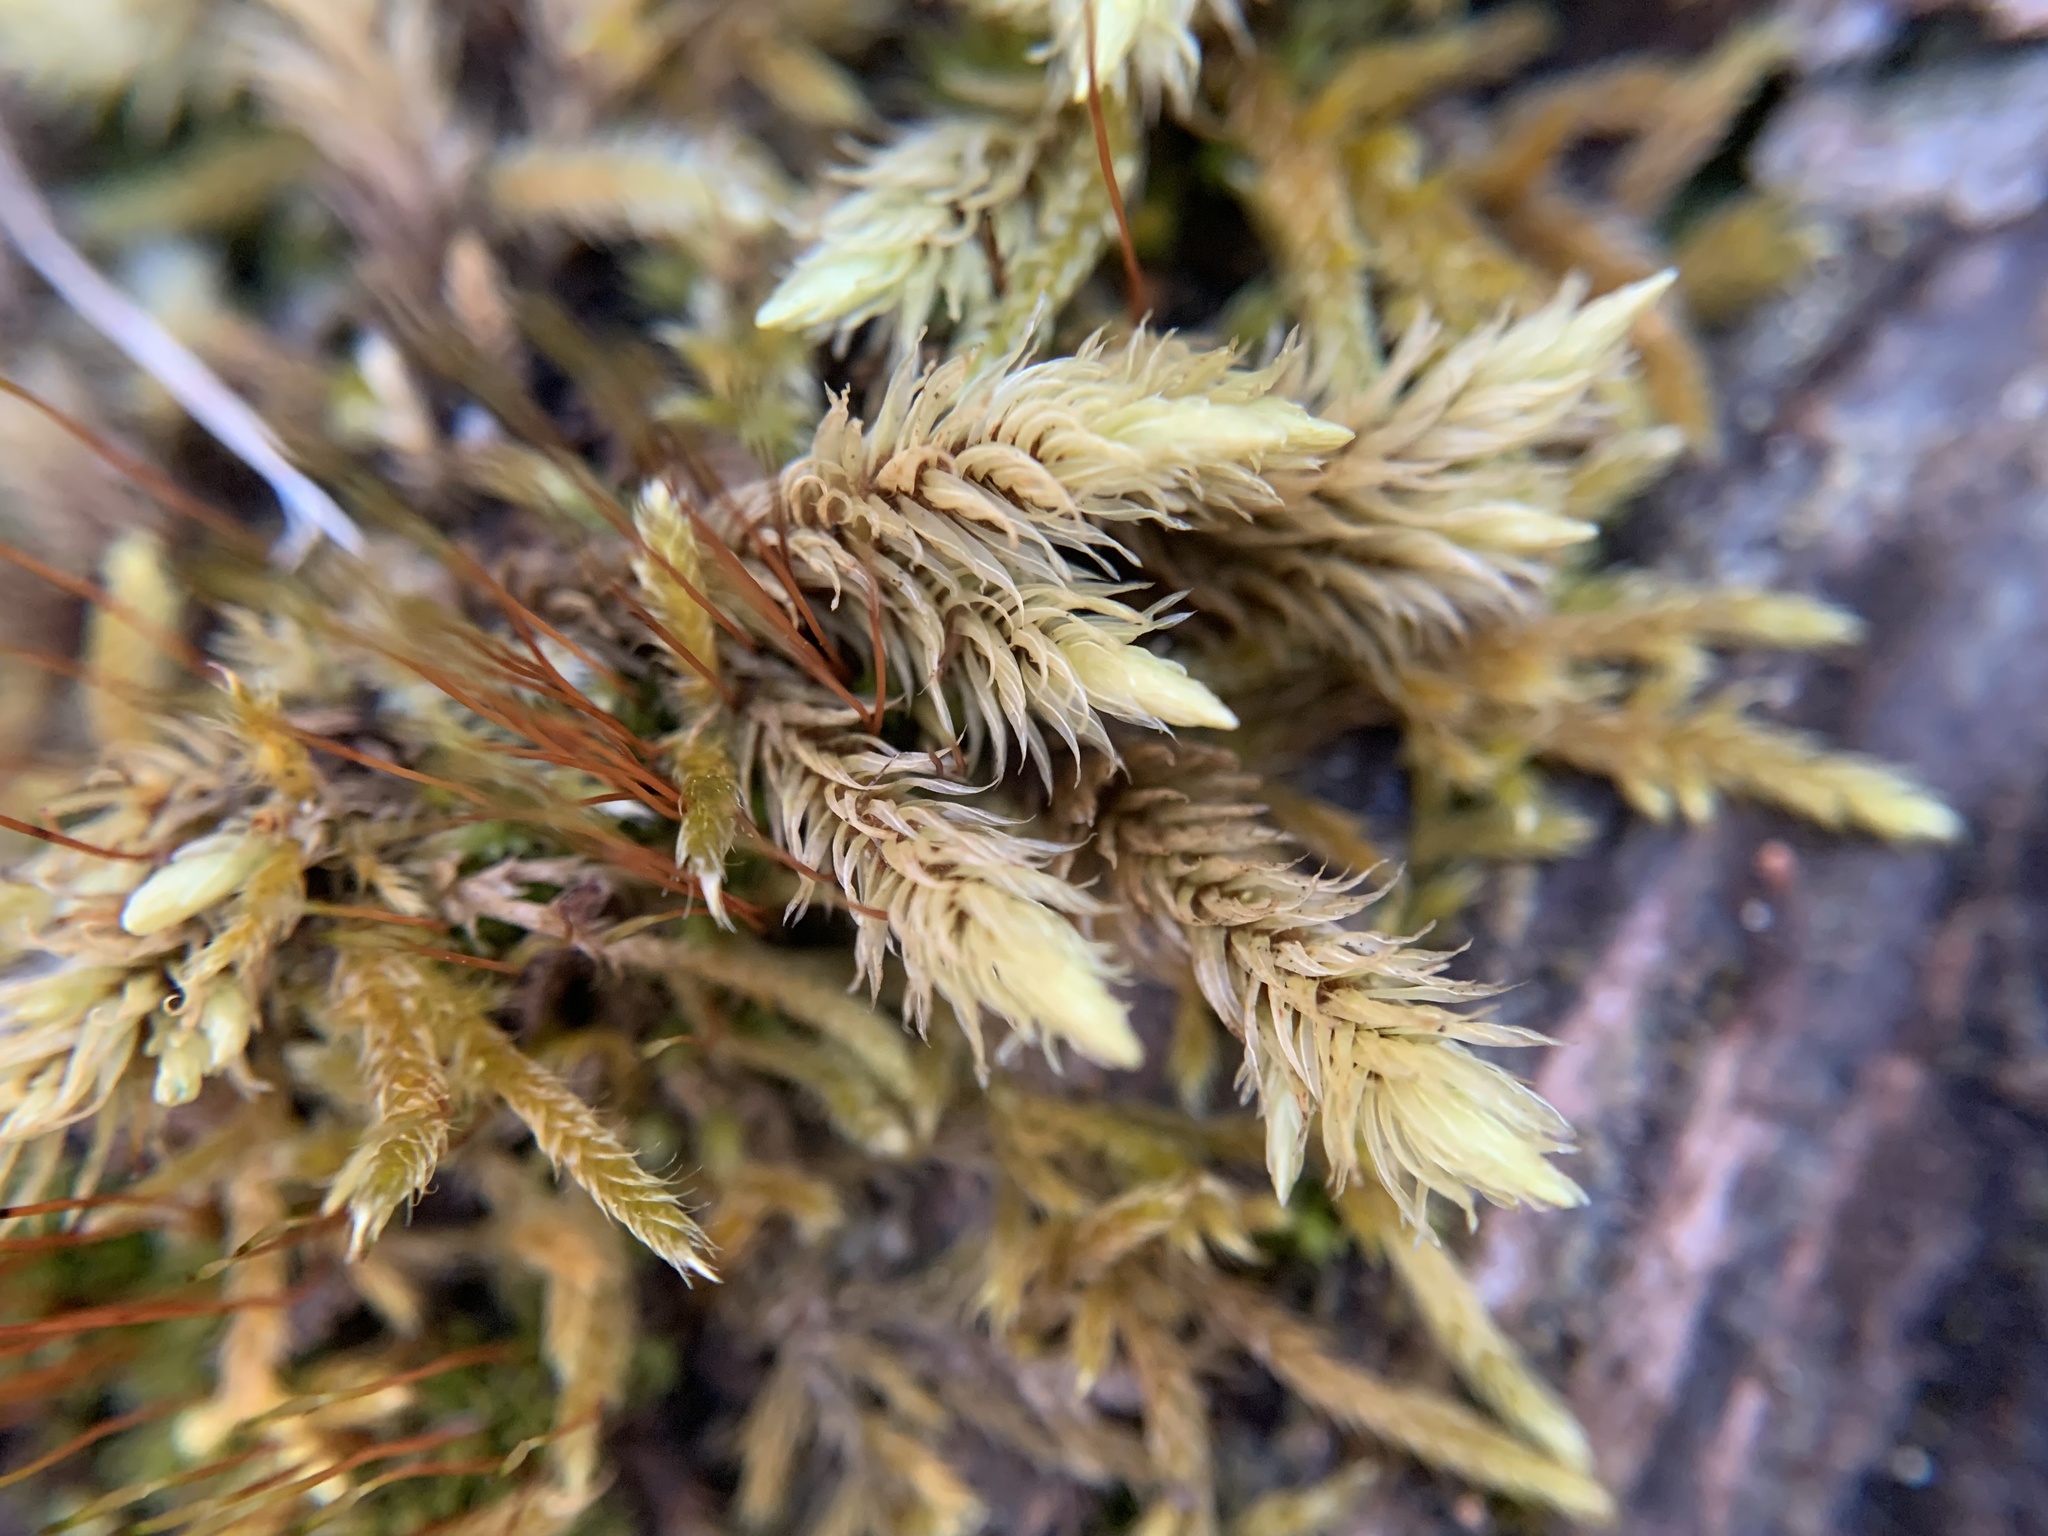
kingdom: Plantae
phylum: Bryophyta
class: Bryopsida
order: Aulacomniales
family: Aulacomniaceae
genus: Aulacomnium
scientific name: Aulacomnium palustre
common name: Bog groove-moss
